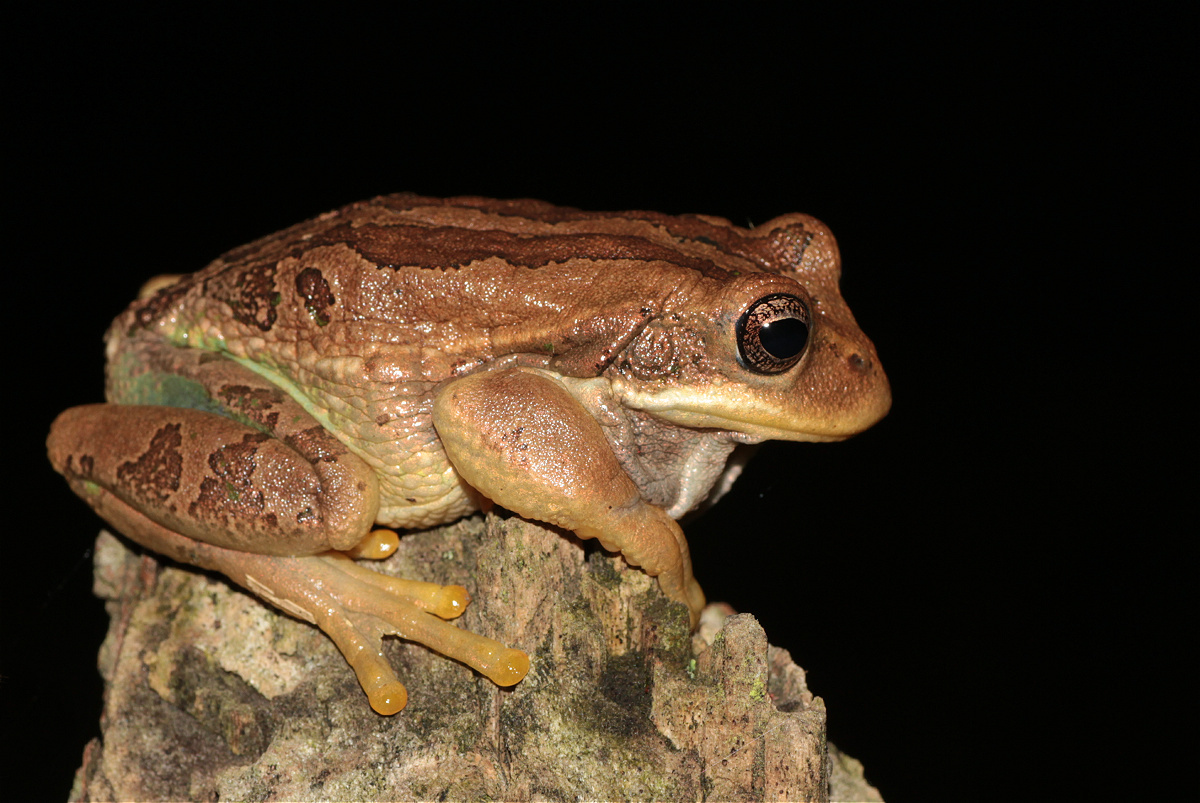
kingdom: Animalia
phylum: Chordata
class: Amphibia
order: Anura
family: Hemiphractidae
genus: Gastrotheca
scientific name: Gastrotheca cuencana
